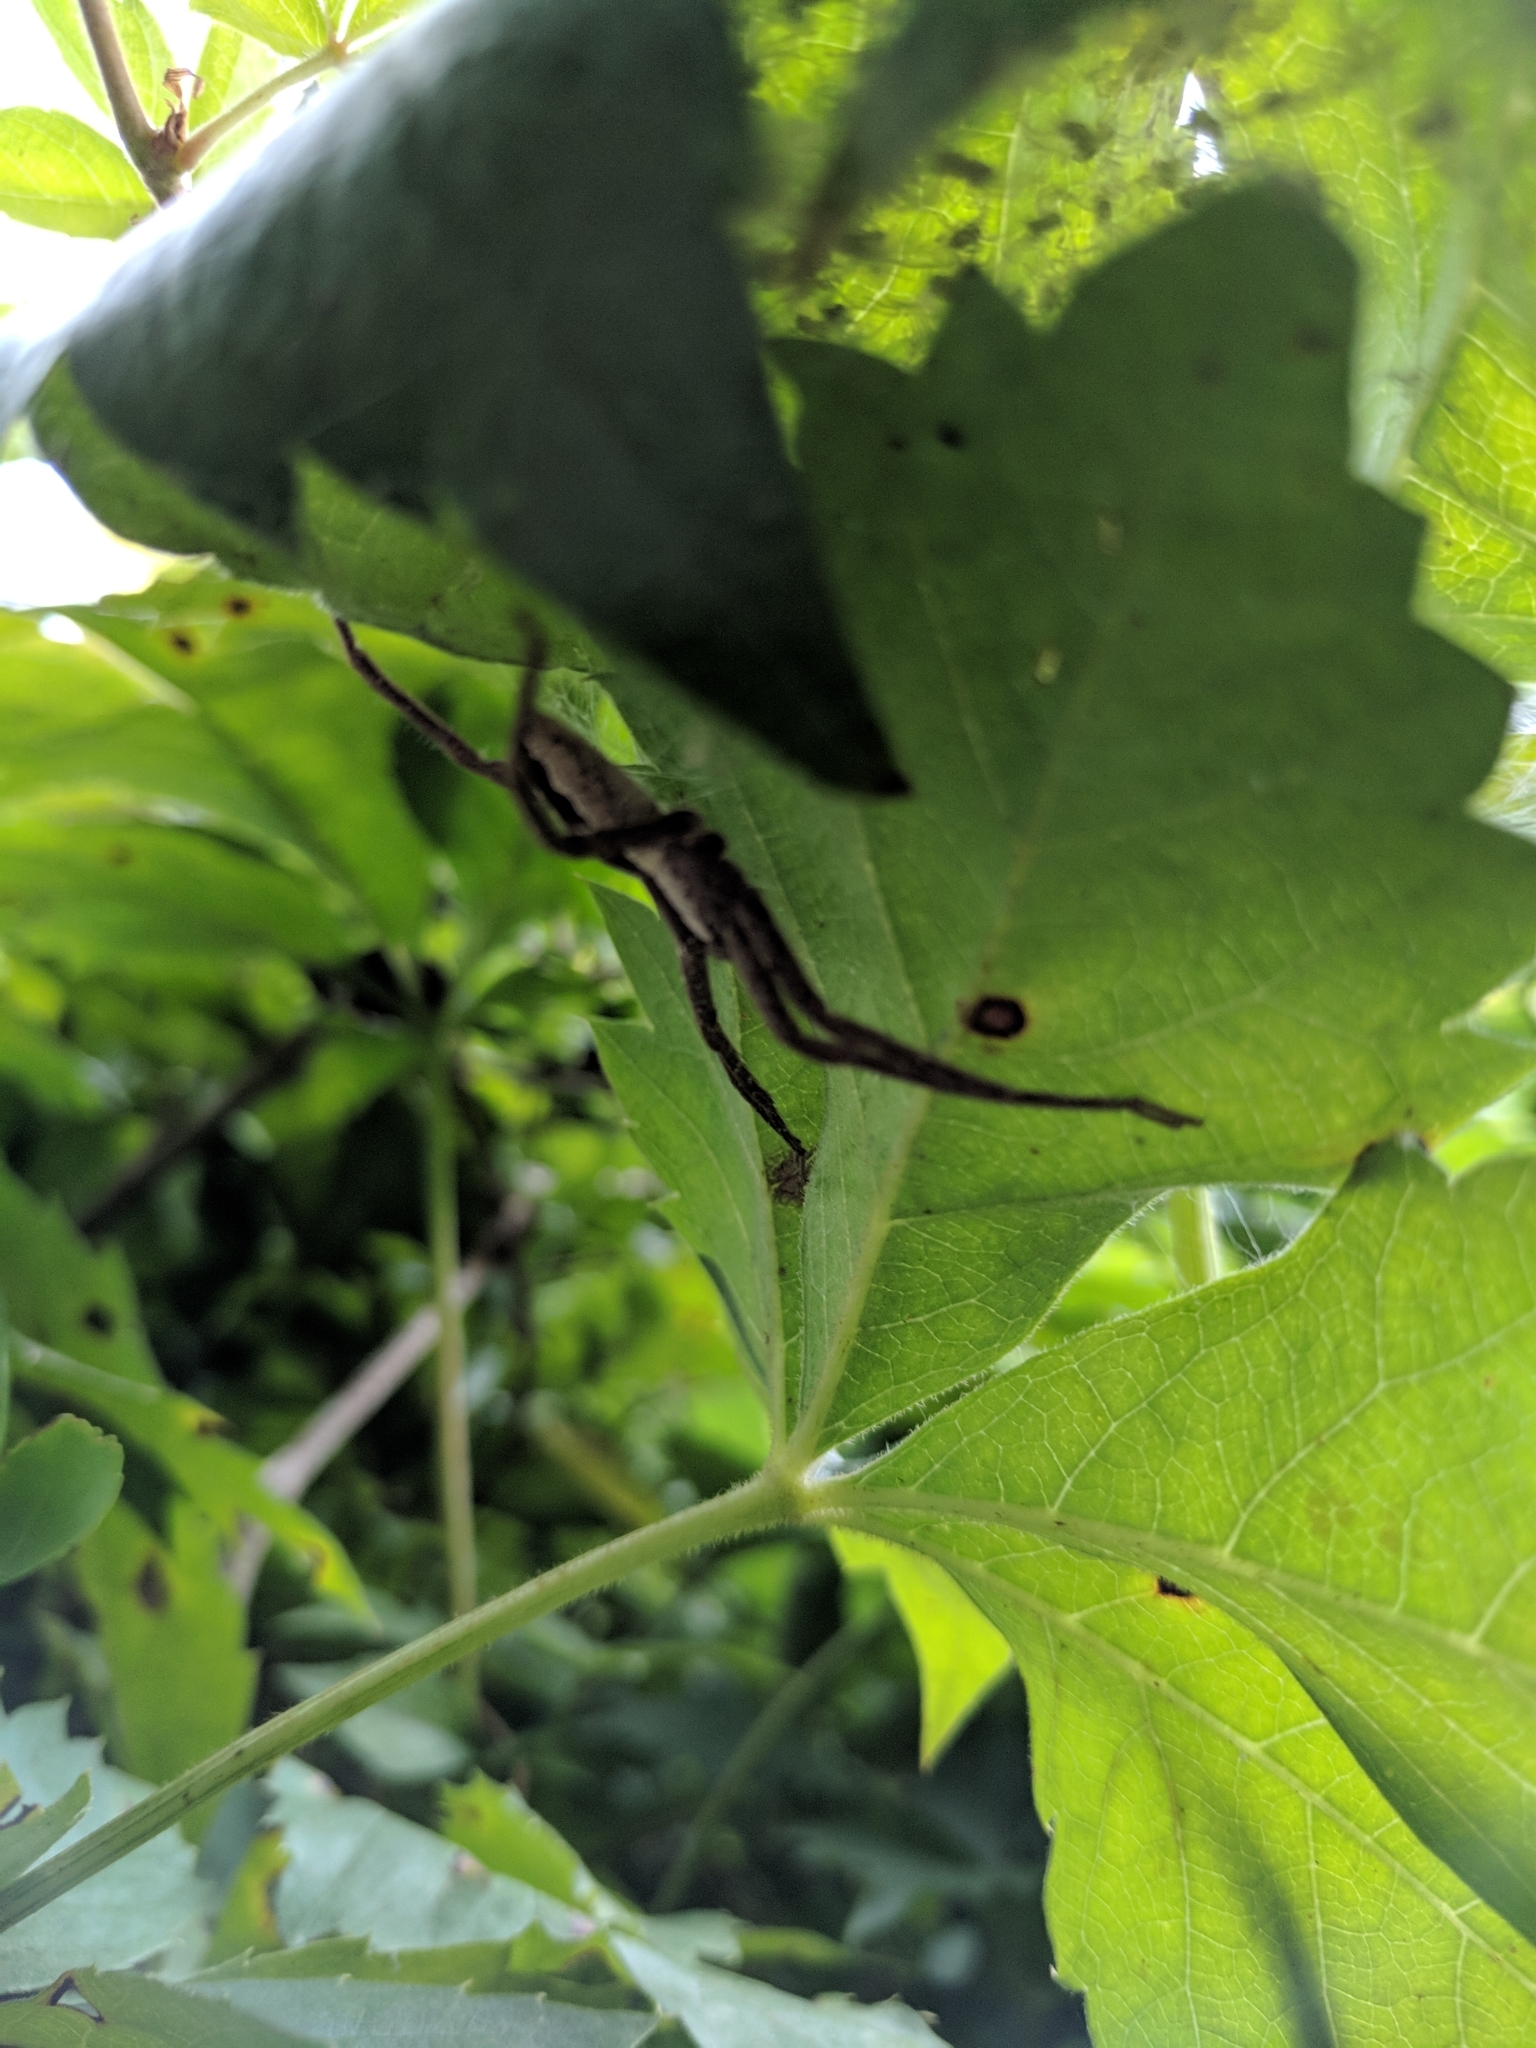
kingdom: Animalia
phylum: Arthropoda
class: Arachnida
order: Araneae
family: Pisauridae
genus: Pisaurina
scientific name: Pisaurina mira
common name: American nursery web spider
